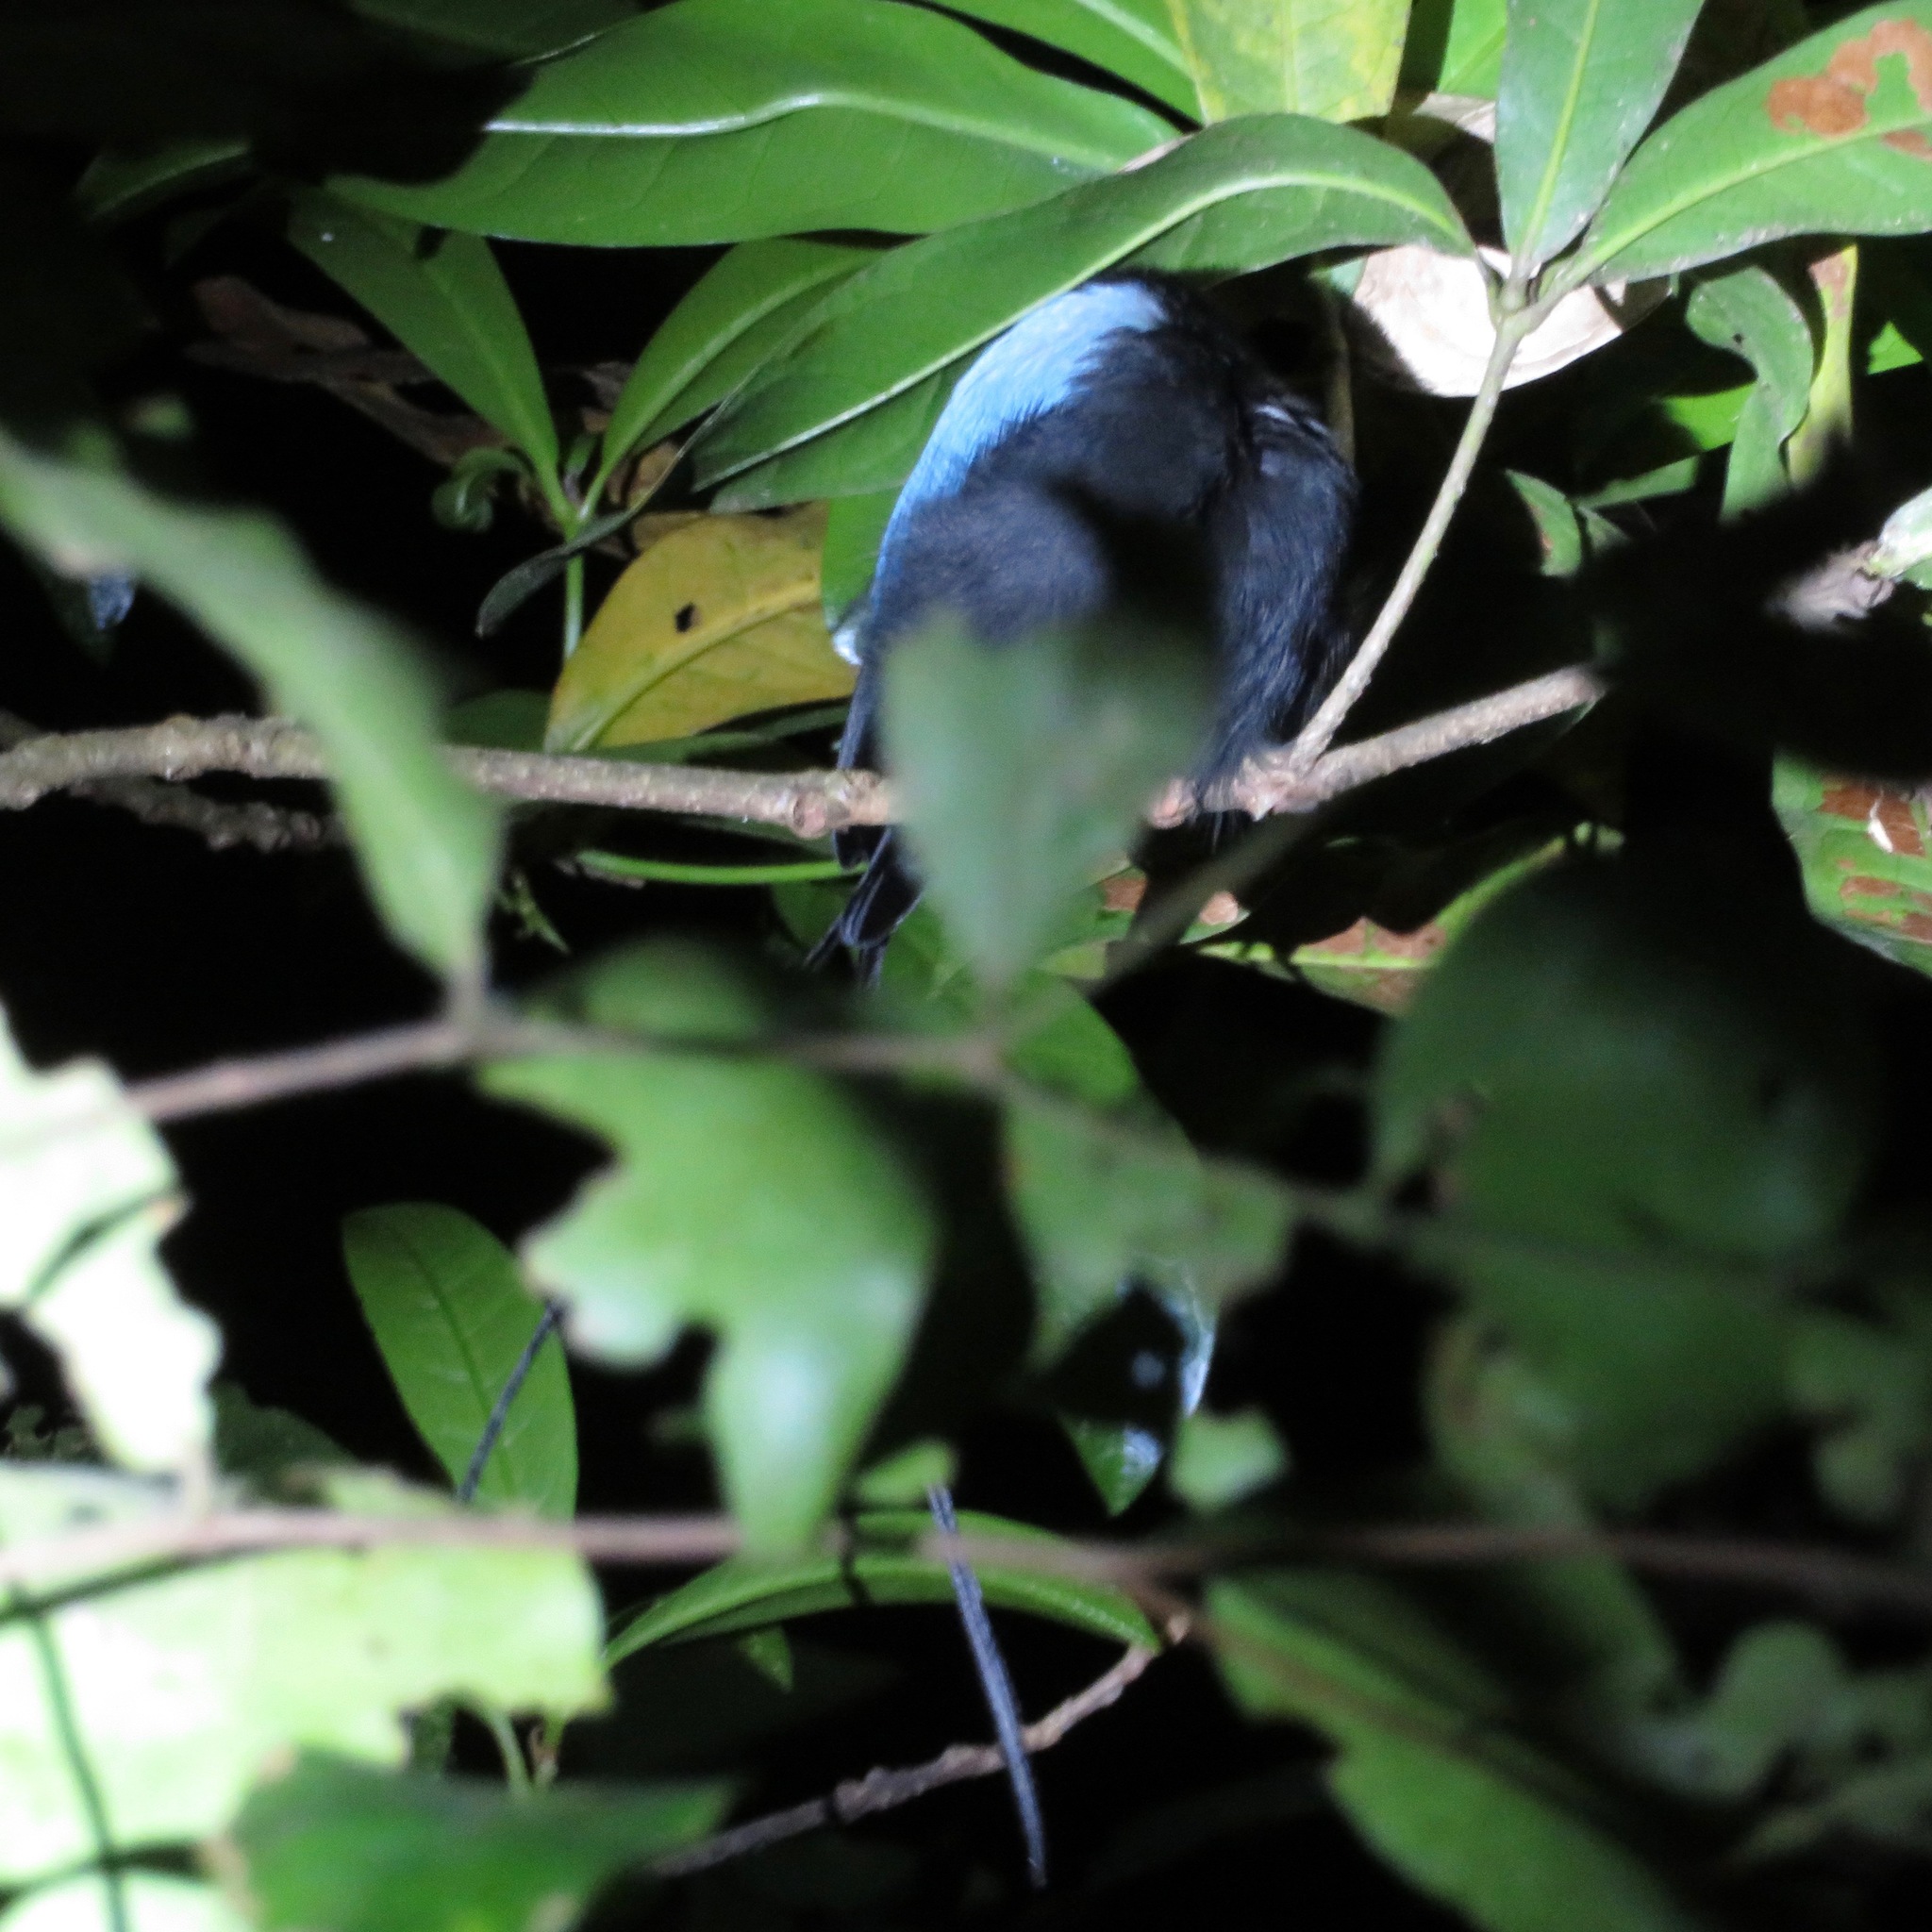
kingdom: Animalia
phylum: Chordata
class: Aves
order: Passeriformes
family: Pipridae
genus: Chiroxiphia
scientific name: Chiroxiphia linearis
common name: Long-tailed manakin
